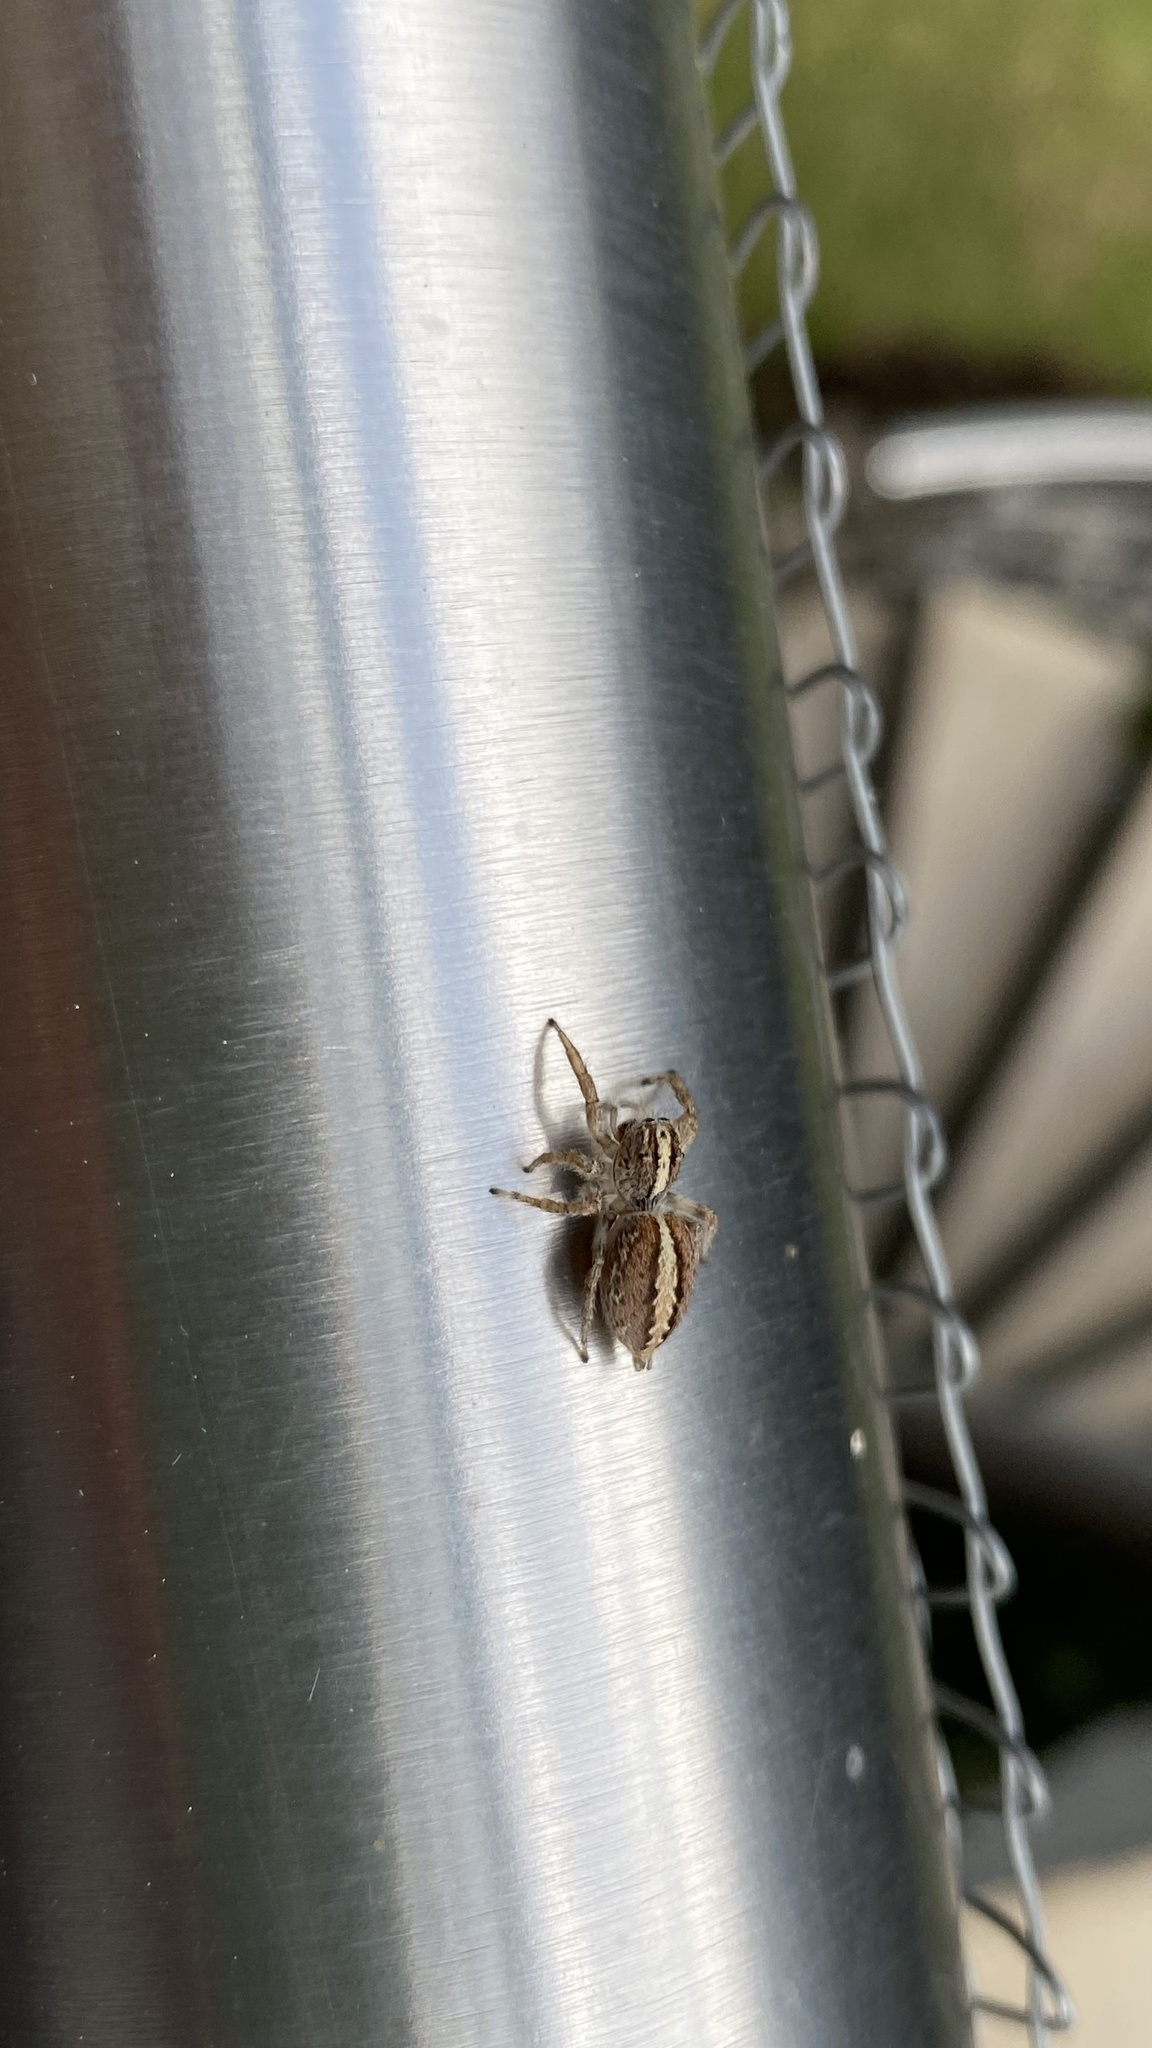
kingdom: Animalia
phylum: Arthropoda
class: Arachnida
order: Araneae
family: Salticidae
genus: Frigga
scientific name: Frigga crocuta
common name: Jumping spiders
